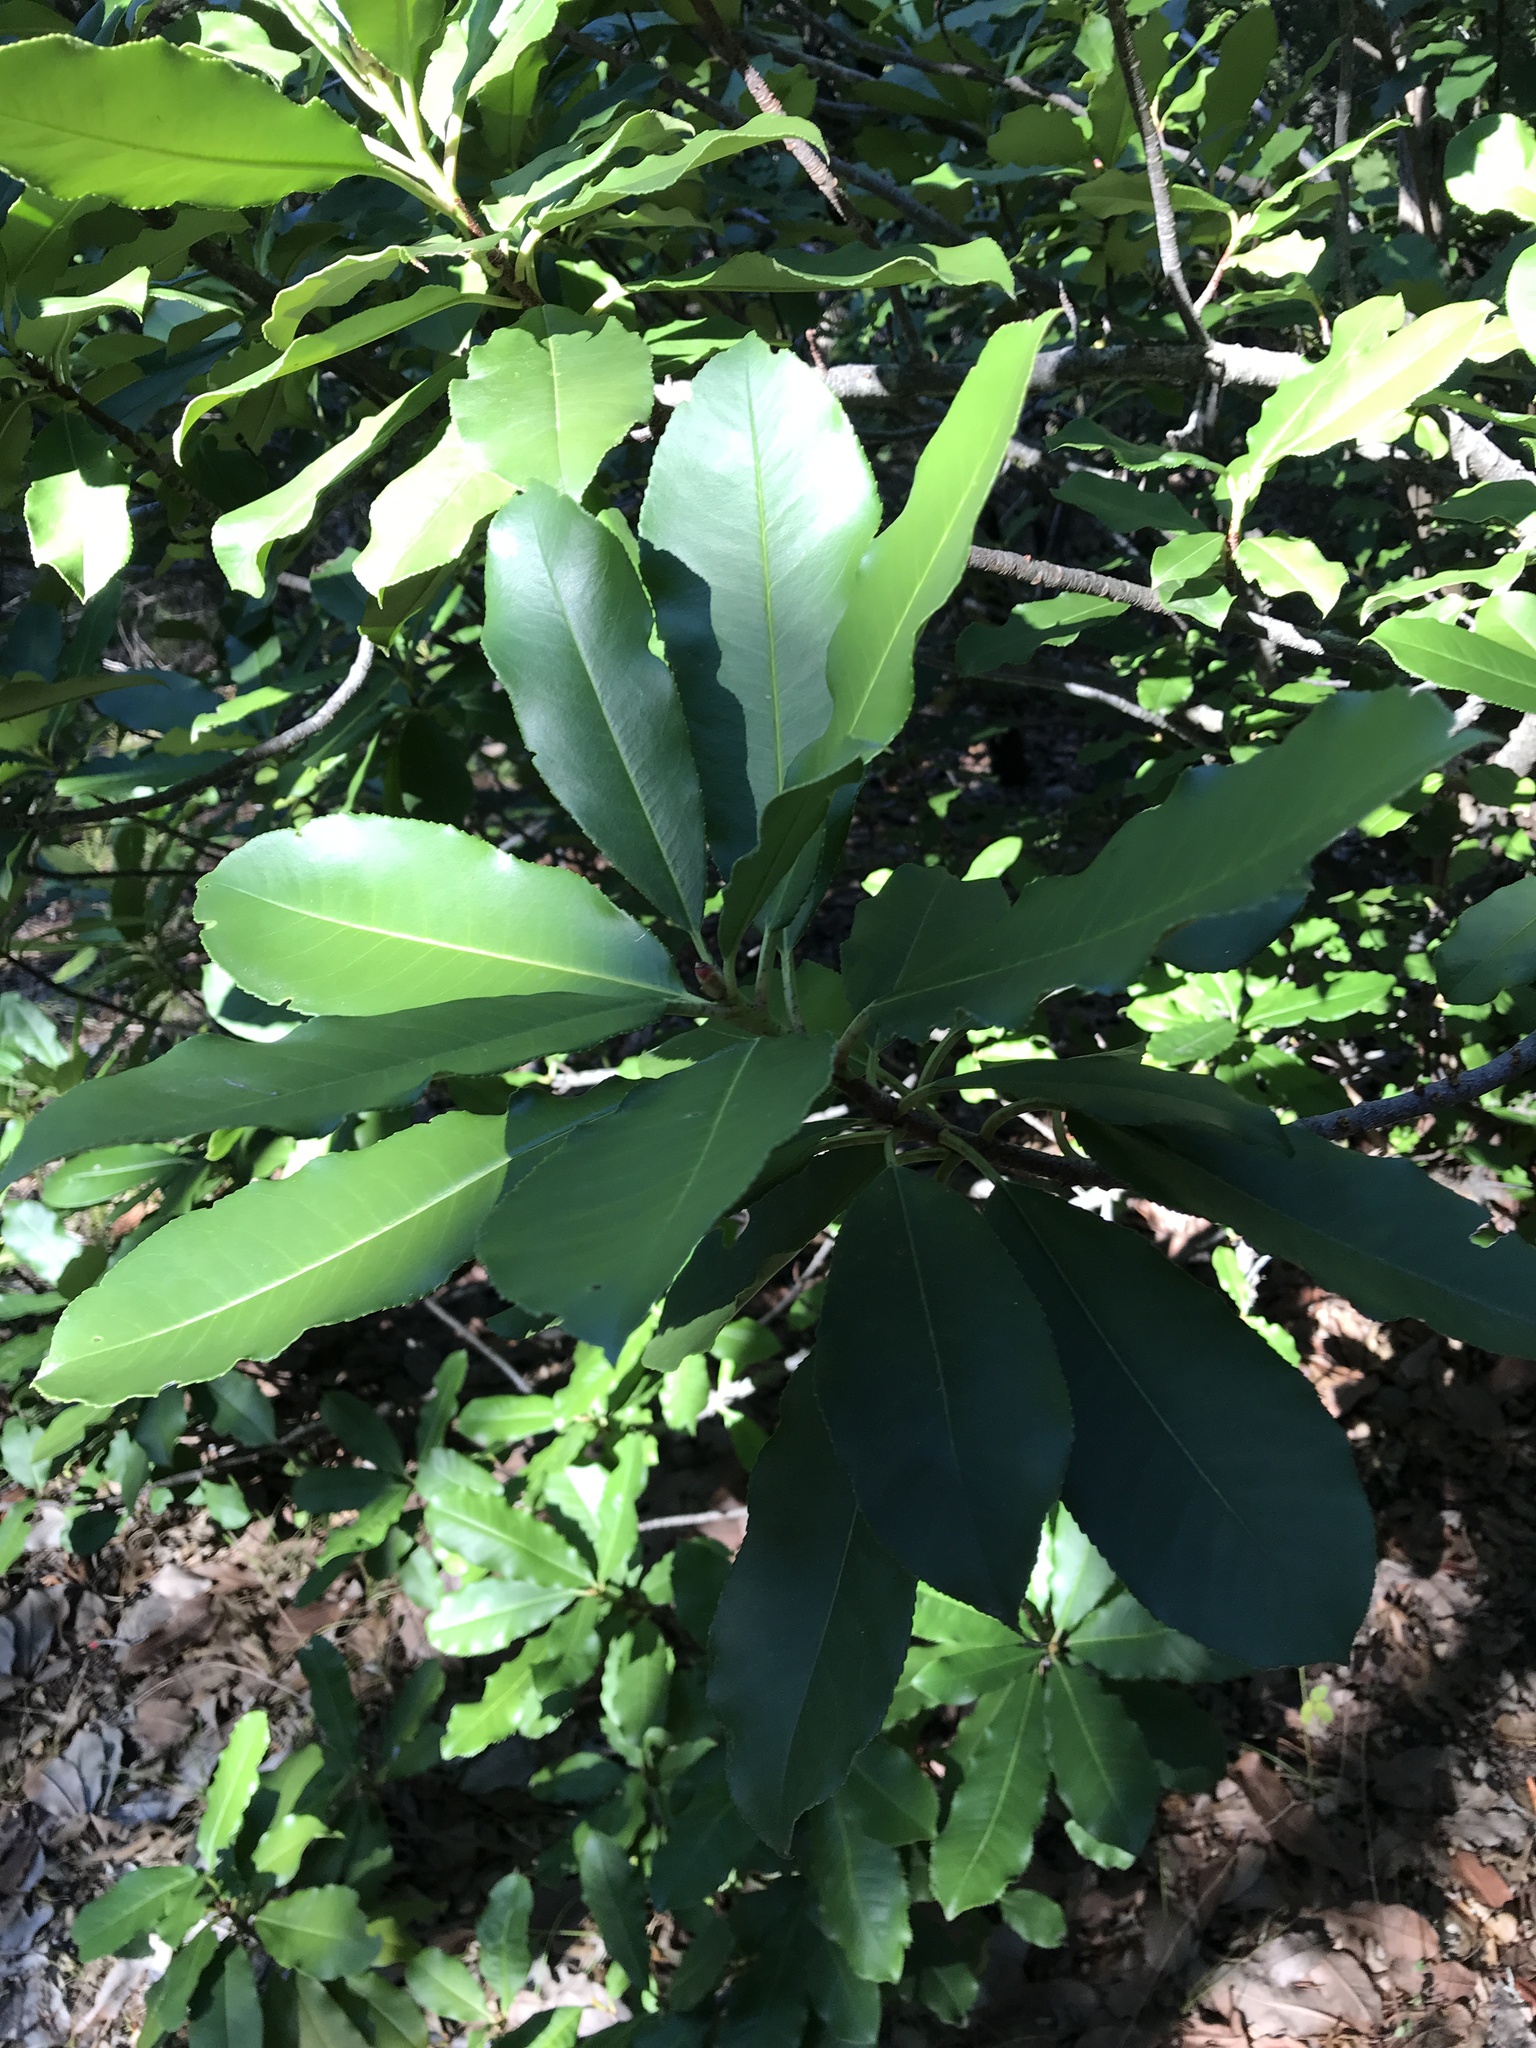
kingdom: Plantae
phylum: Tracheophyta
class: Magnoliopsida
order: Rosales
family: Rosaceae
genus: Photinia
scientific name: Photinia serratifolia
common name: Taiwanese photinia
